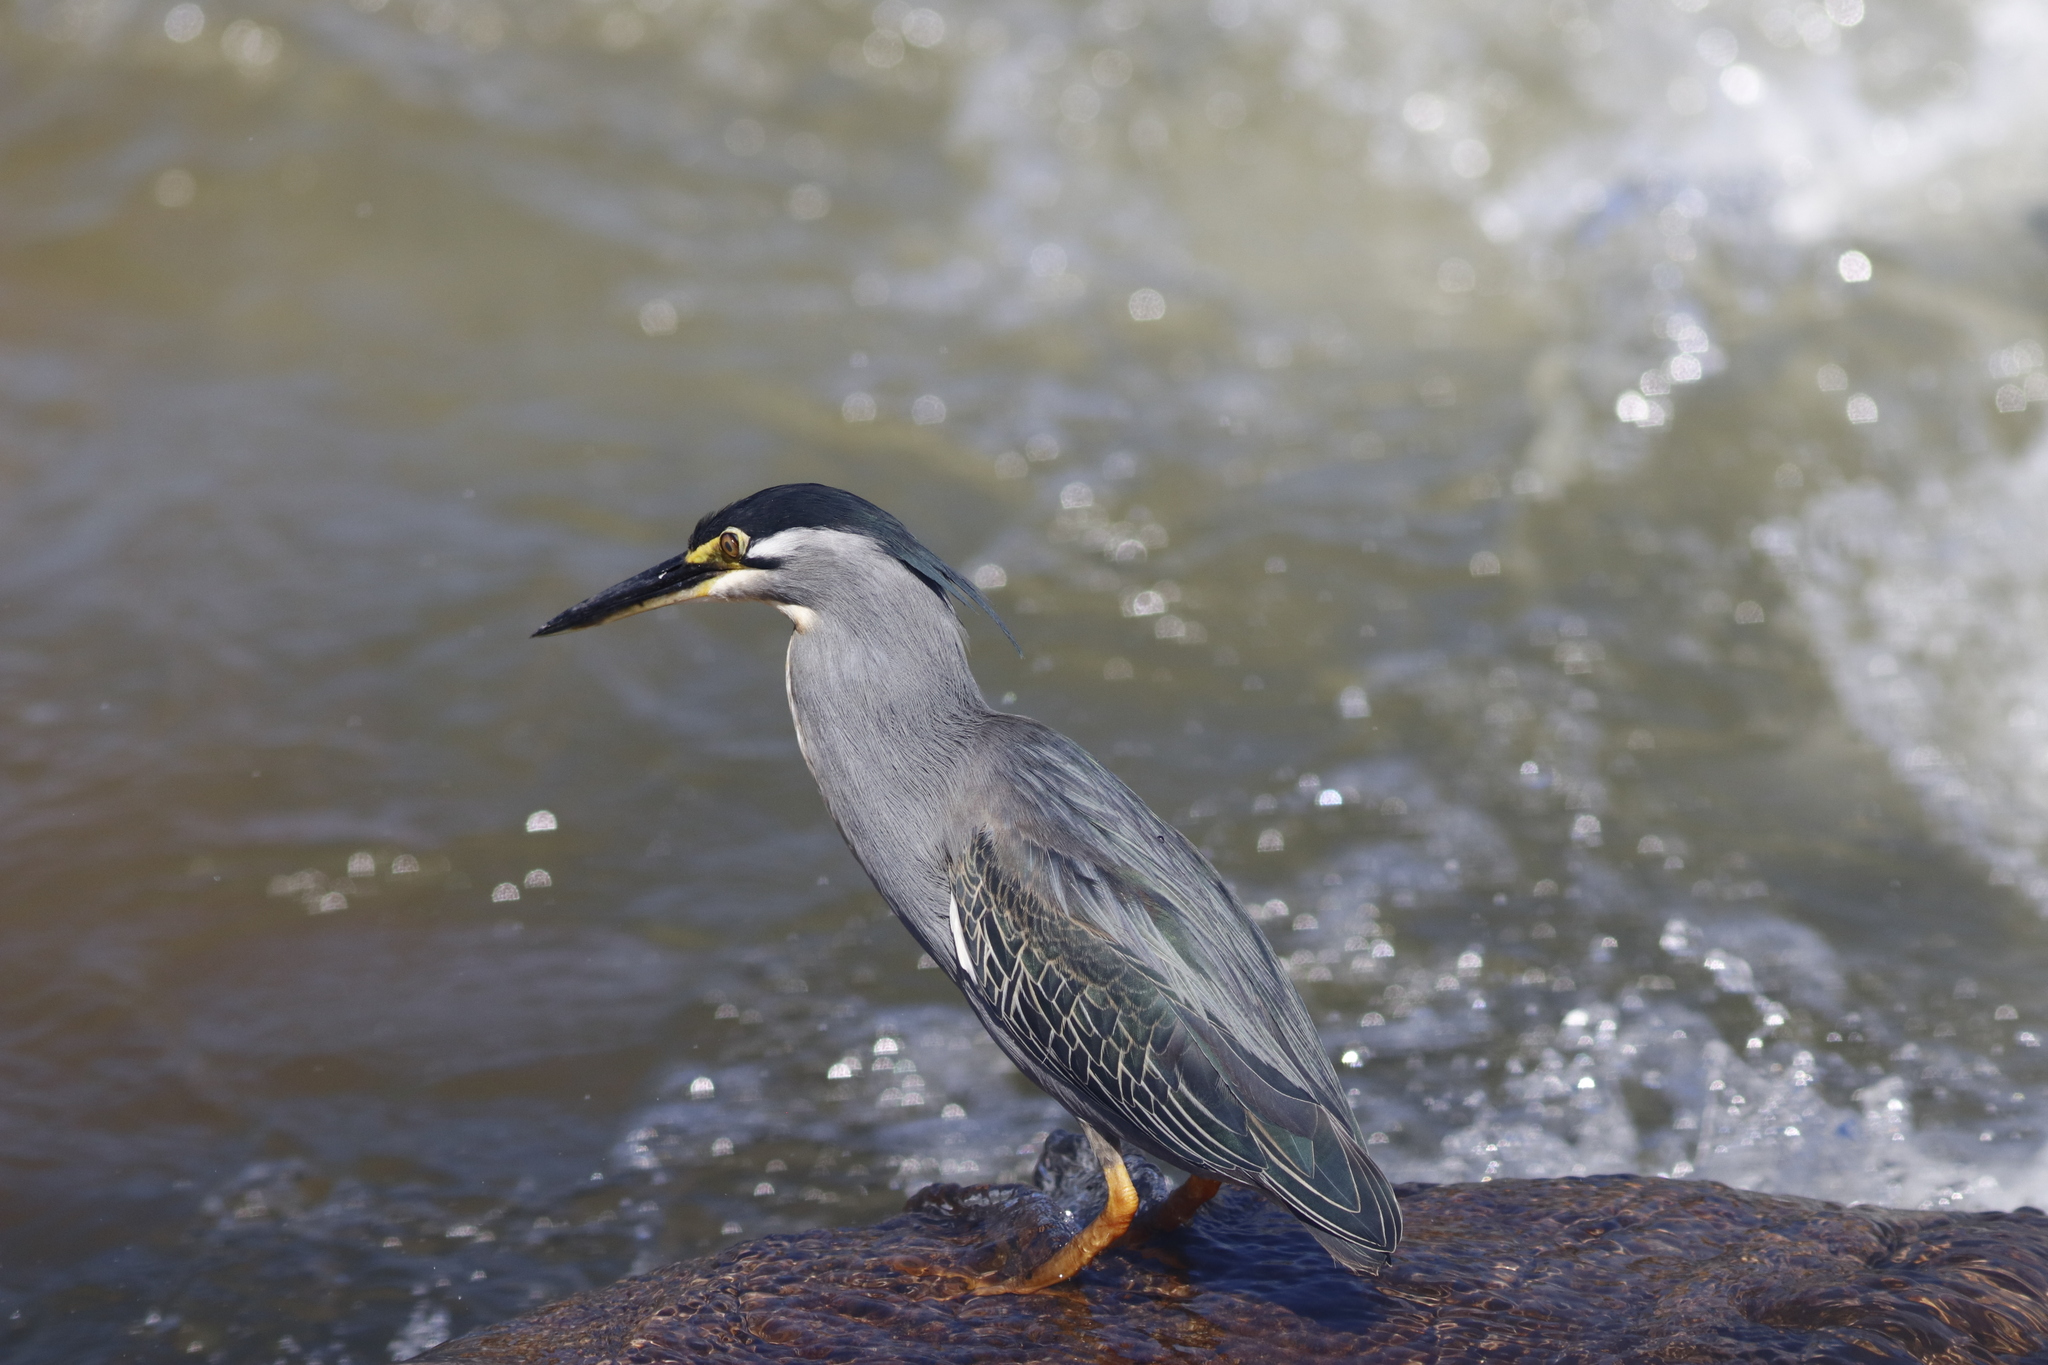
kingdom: Animalia
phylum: Chordata
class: Aves
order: Pelecaniformes
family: Ardeidae
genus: Butorides
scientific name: Butorides striata
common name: Striated heron
